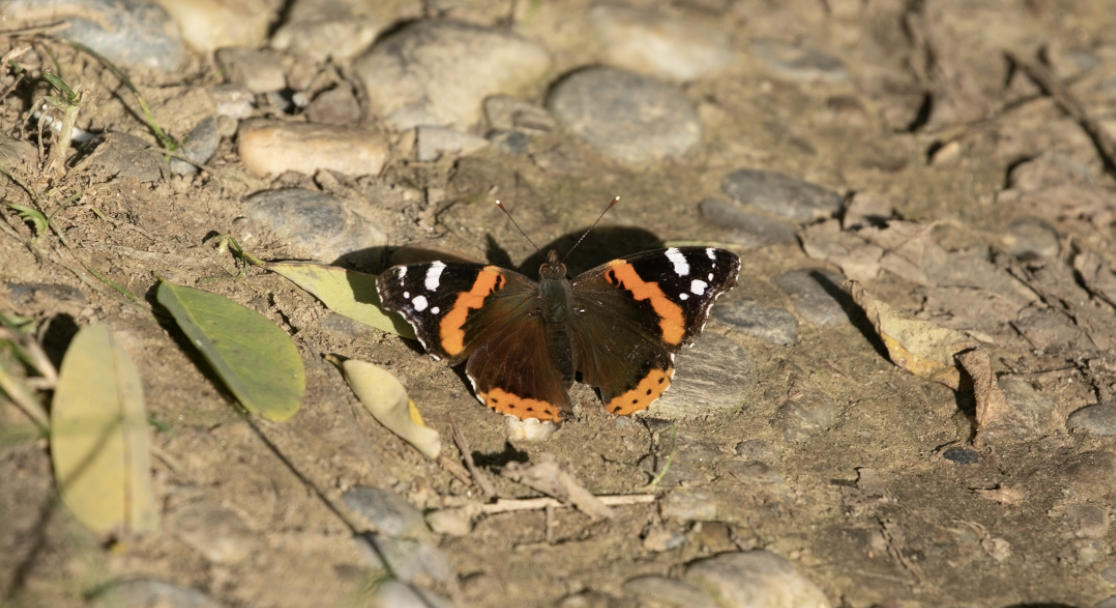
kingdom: Animalia
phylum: Arthropoda
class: Insecta
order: Lepidoptera
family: Nymphalidae
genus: Vanessa
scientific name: Vanessa atalanta
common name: Red admiral
